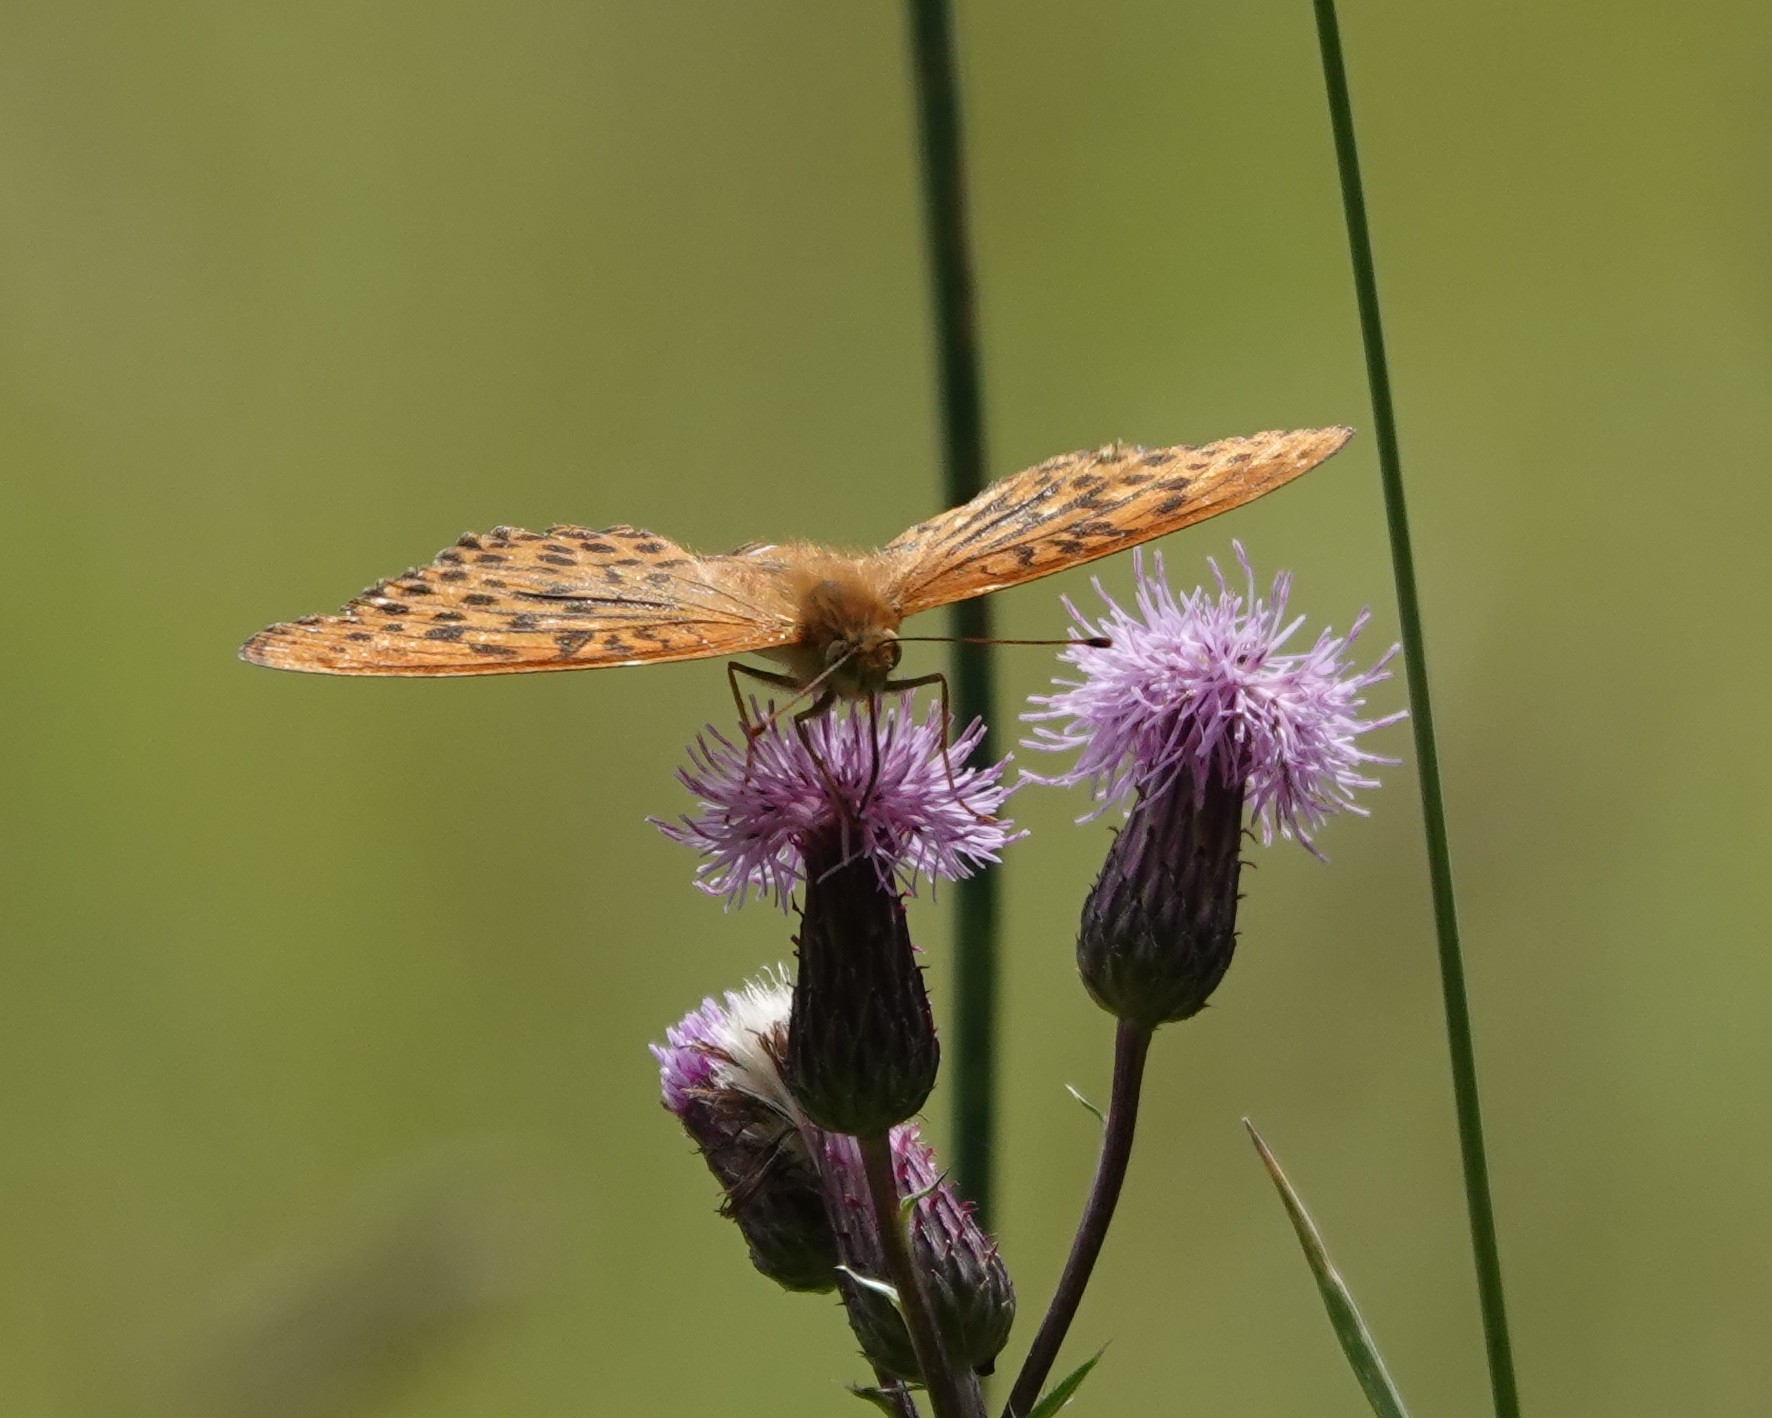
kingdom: Animalia
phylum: Arthropoda
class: Insecta
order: Lepidoptera
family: Nymphalidae
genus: Argynnis
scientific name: Argynnis paphia
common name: Silver-washed fritillary
